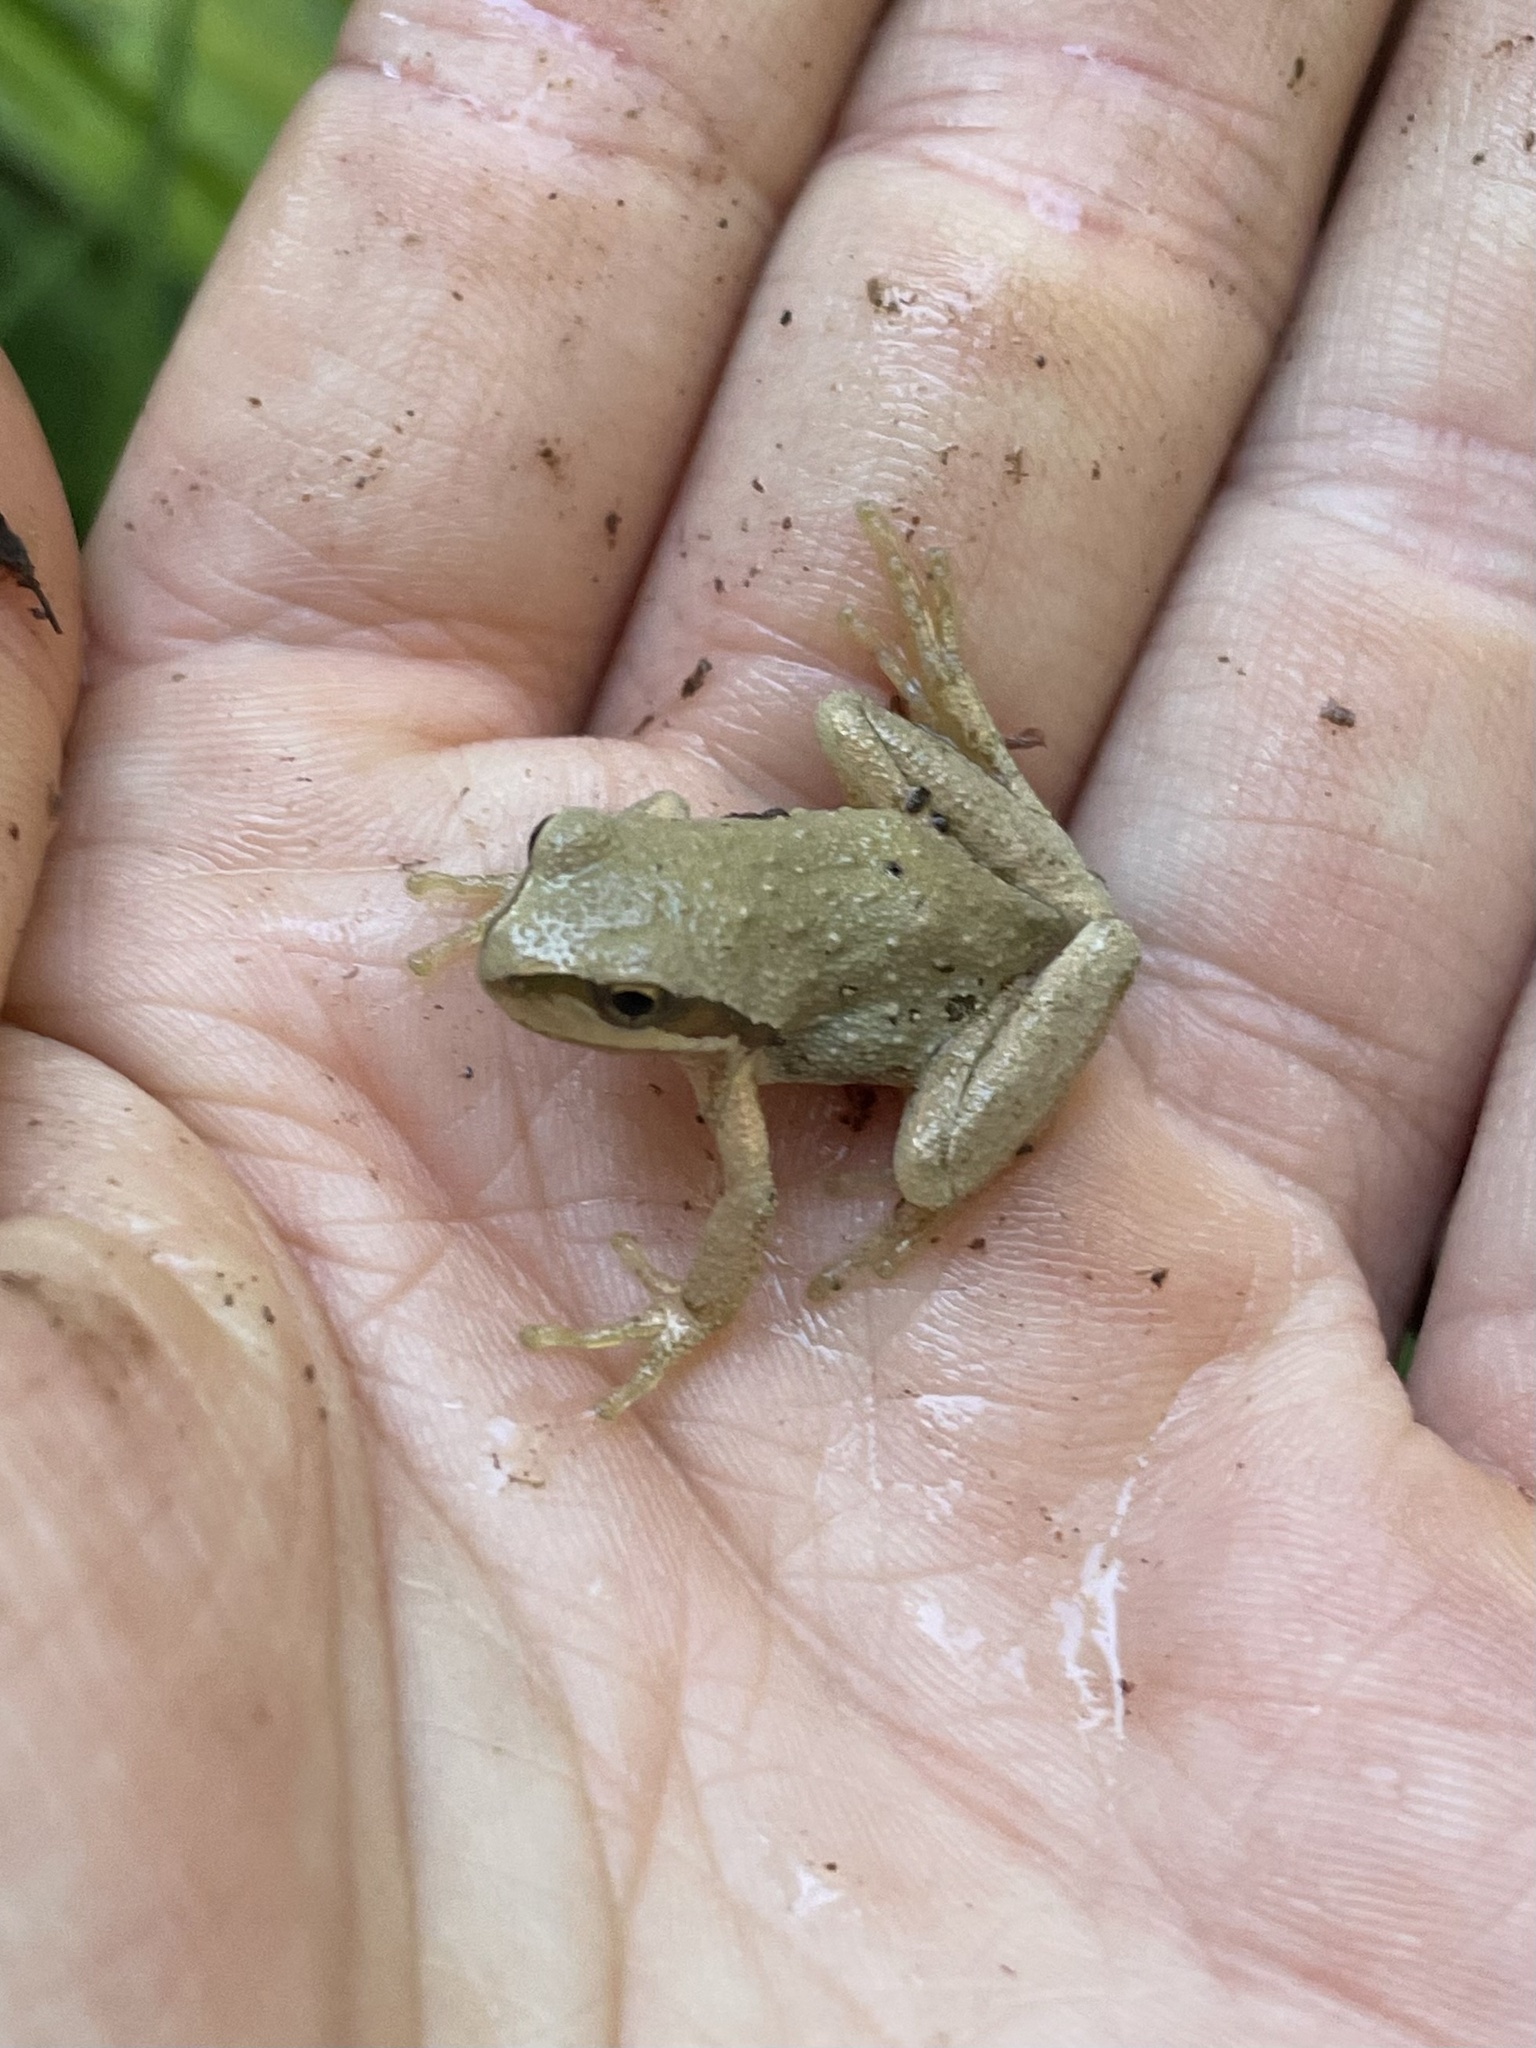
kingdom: Animalia
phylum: Chordata
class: Amphibia
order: Anura
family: Hylidae
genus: Pseudacris
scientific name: Pseudacris regilla
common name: Pacific chorus frog
